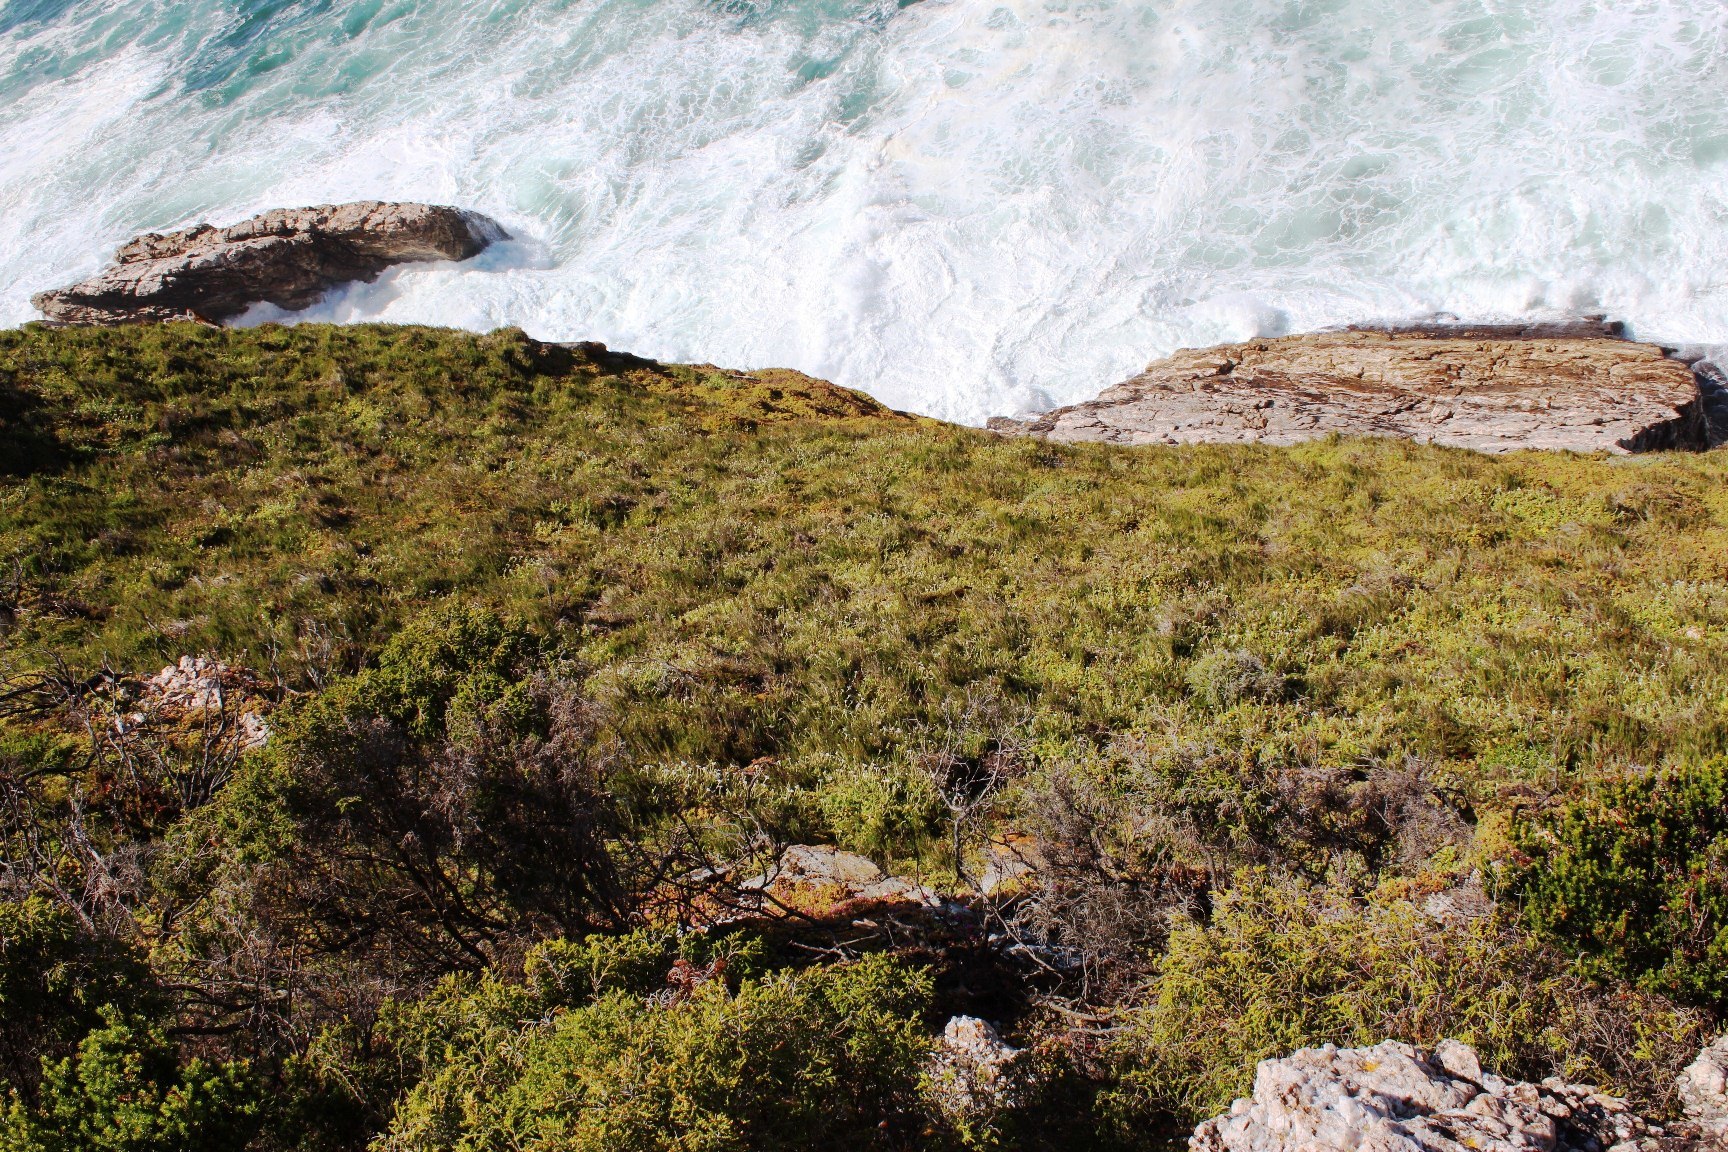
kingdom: Plantae
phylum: Tracheophyta
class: Magnoliopsida
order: Caryophyllales
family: Aizoaceae
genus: Drosanthemum
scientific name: Drosanthemum candens
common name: Rodondo-creeper
